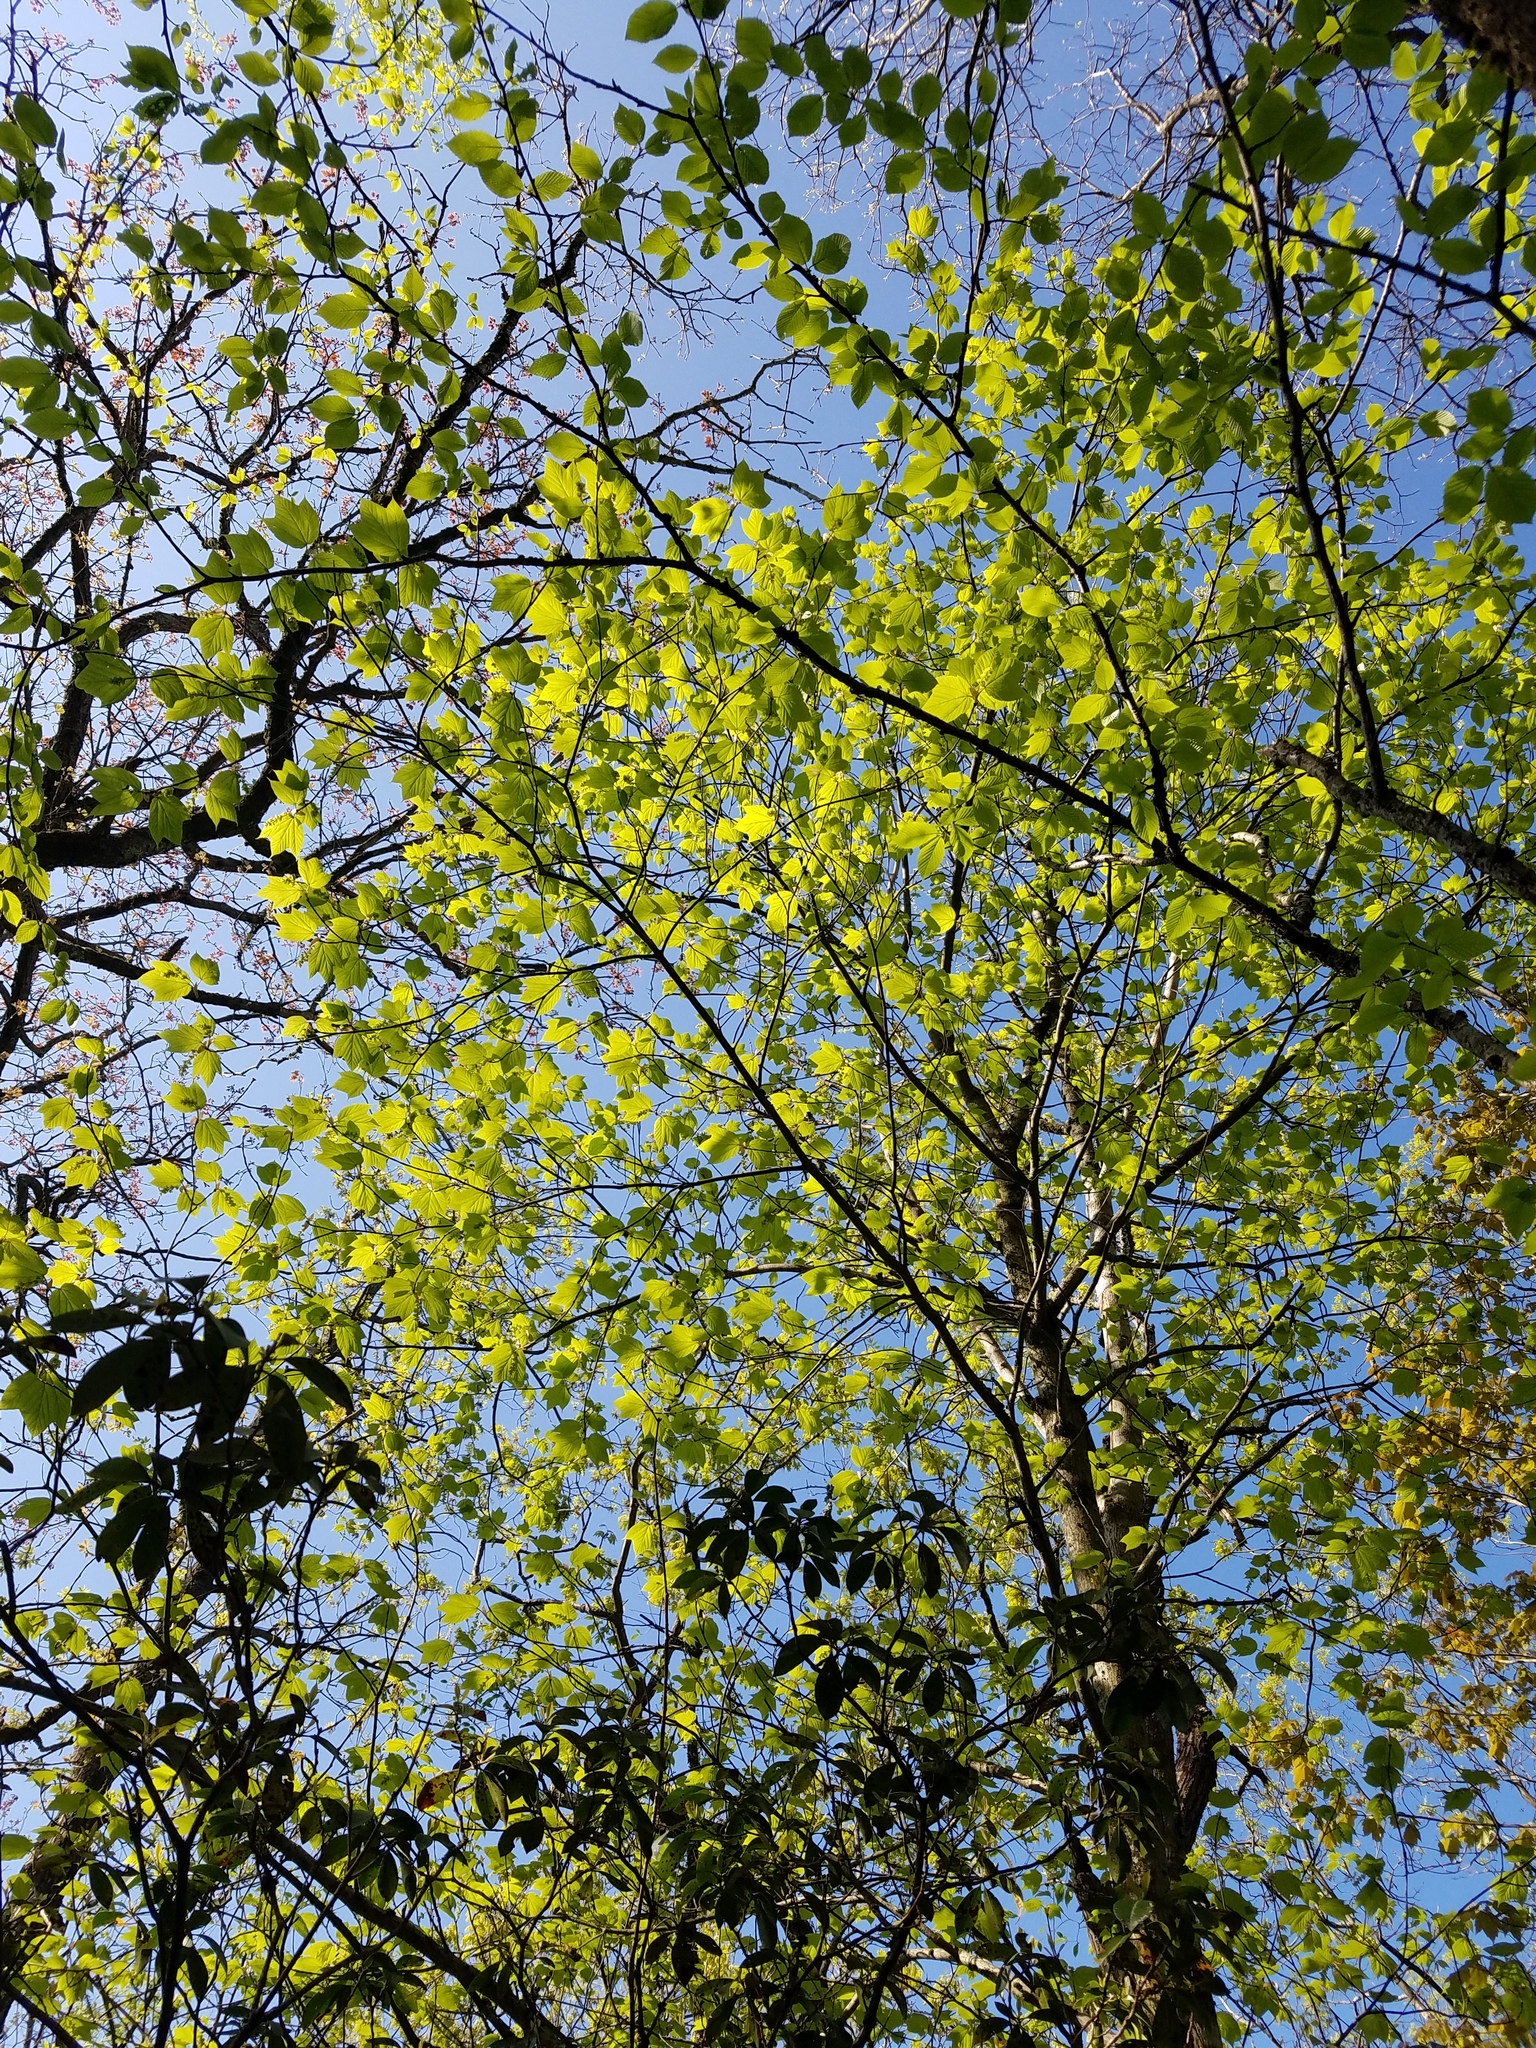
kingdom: Plantae
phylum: Tracheophyta
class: Magnoliopsida
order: Sapindales
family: Sapindaceae
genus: Acer
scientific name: Acer pensylvanicum
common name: Moosewood
